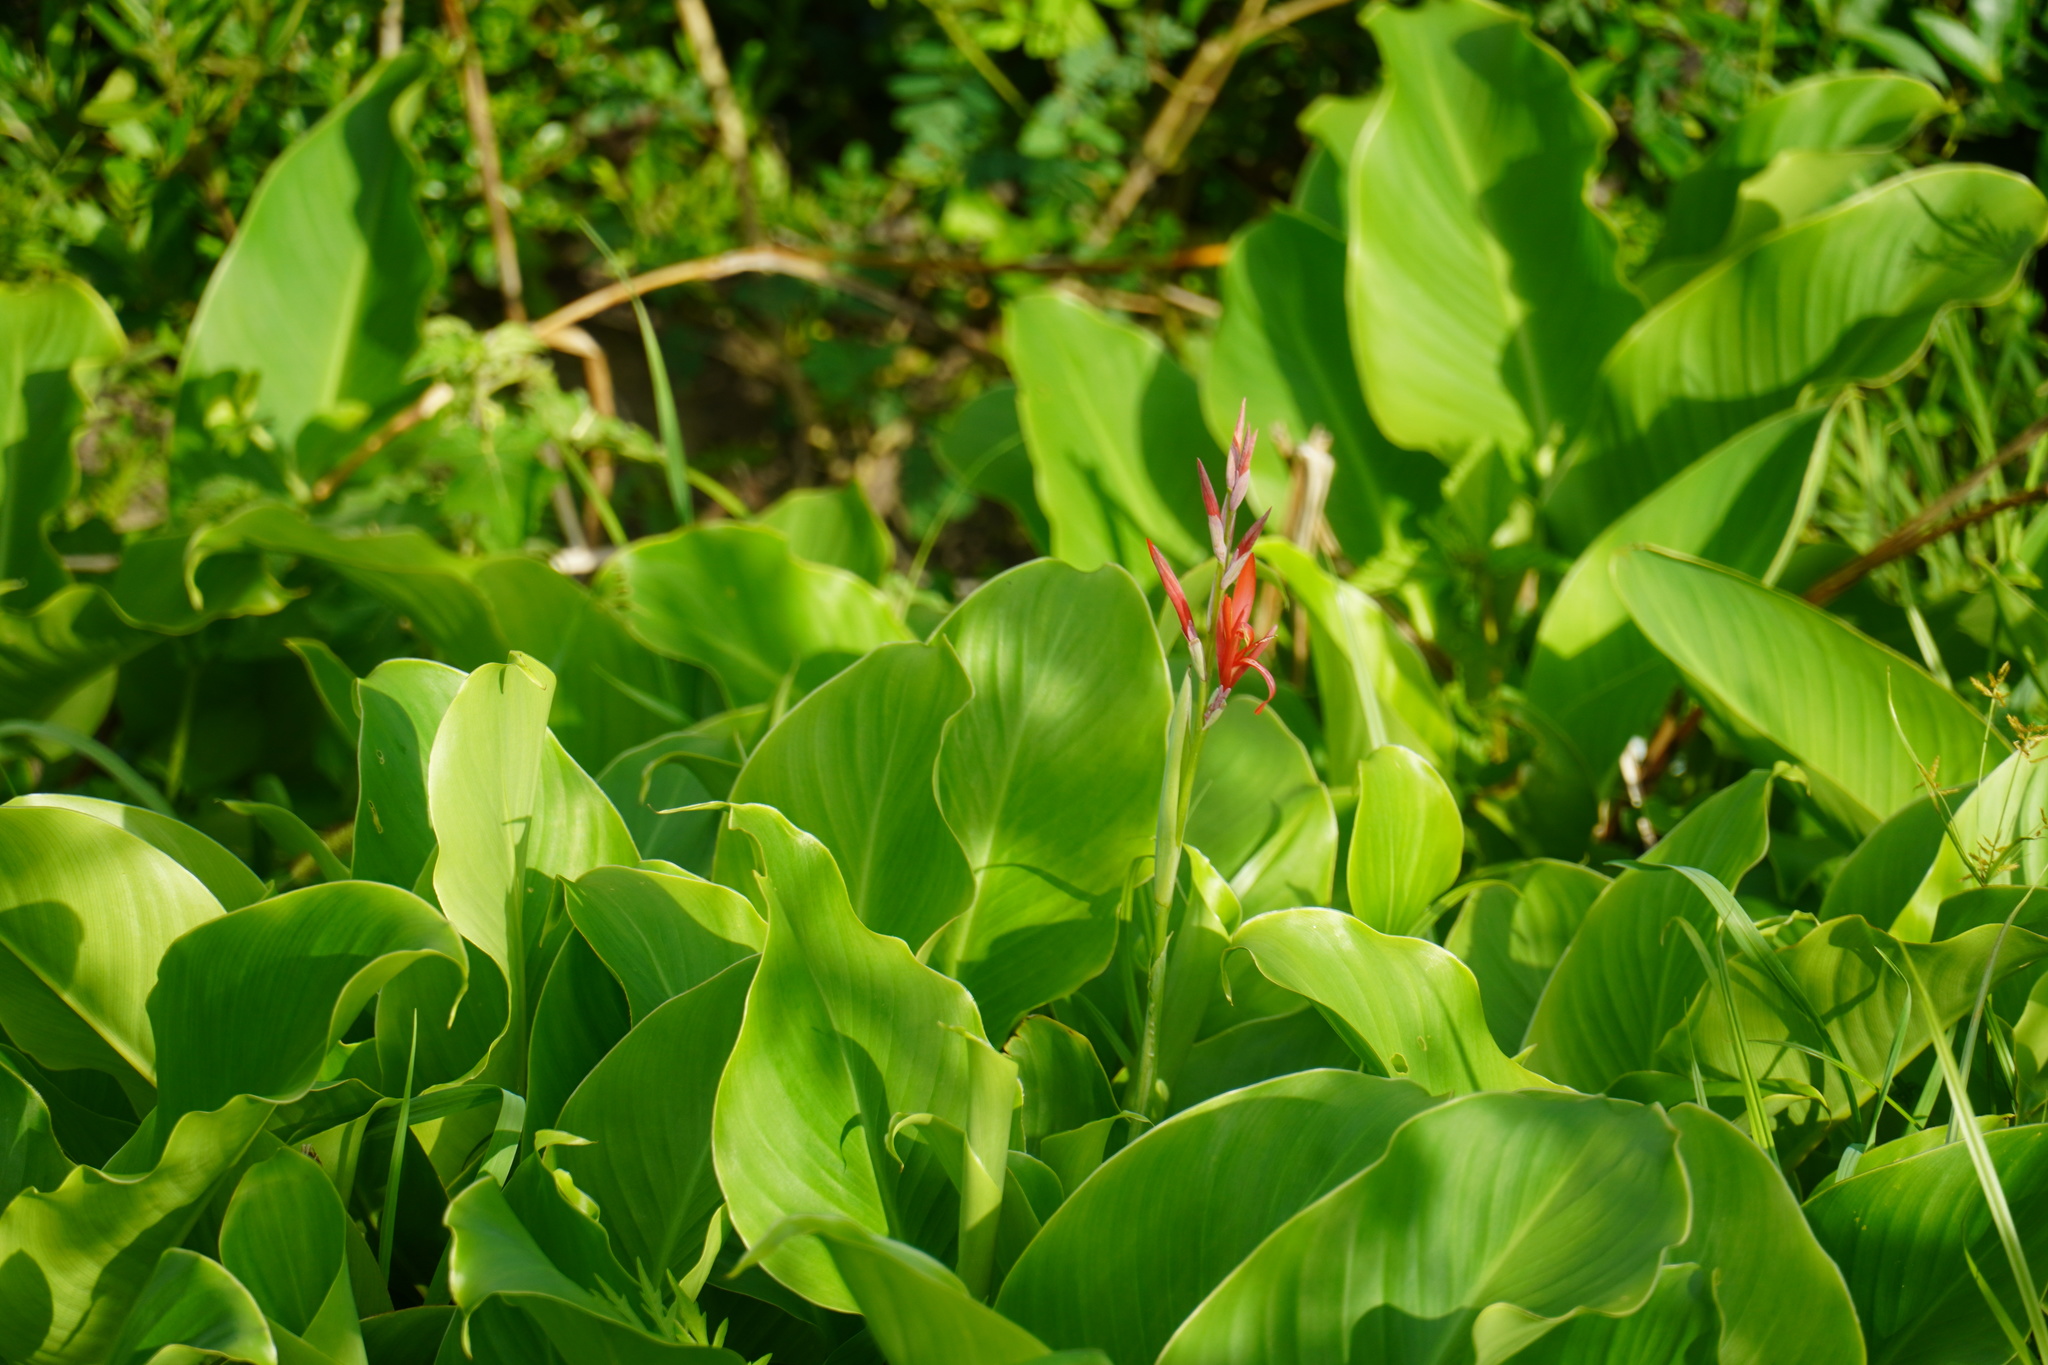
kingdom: Plantae
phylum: Tracheophyta
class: Liliopsida
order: Zingiberales
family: Cannaceae
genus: Canna
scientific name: Canna indica
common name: Indian shot
